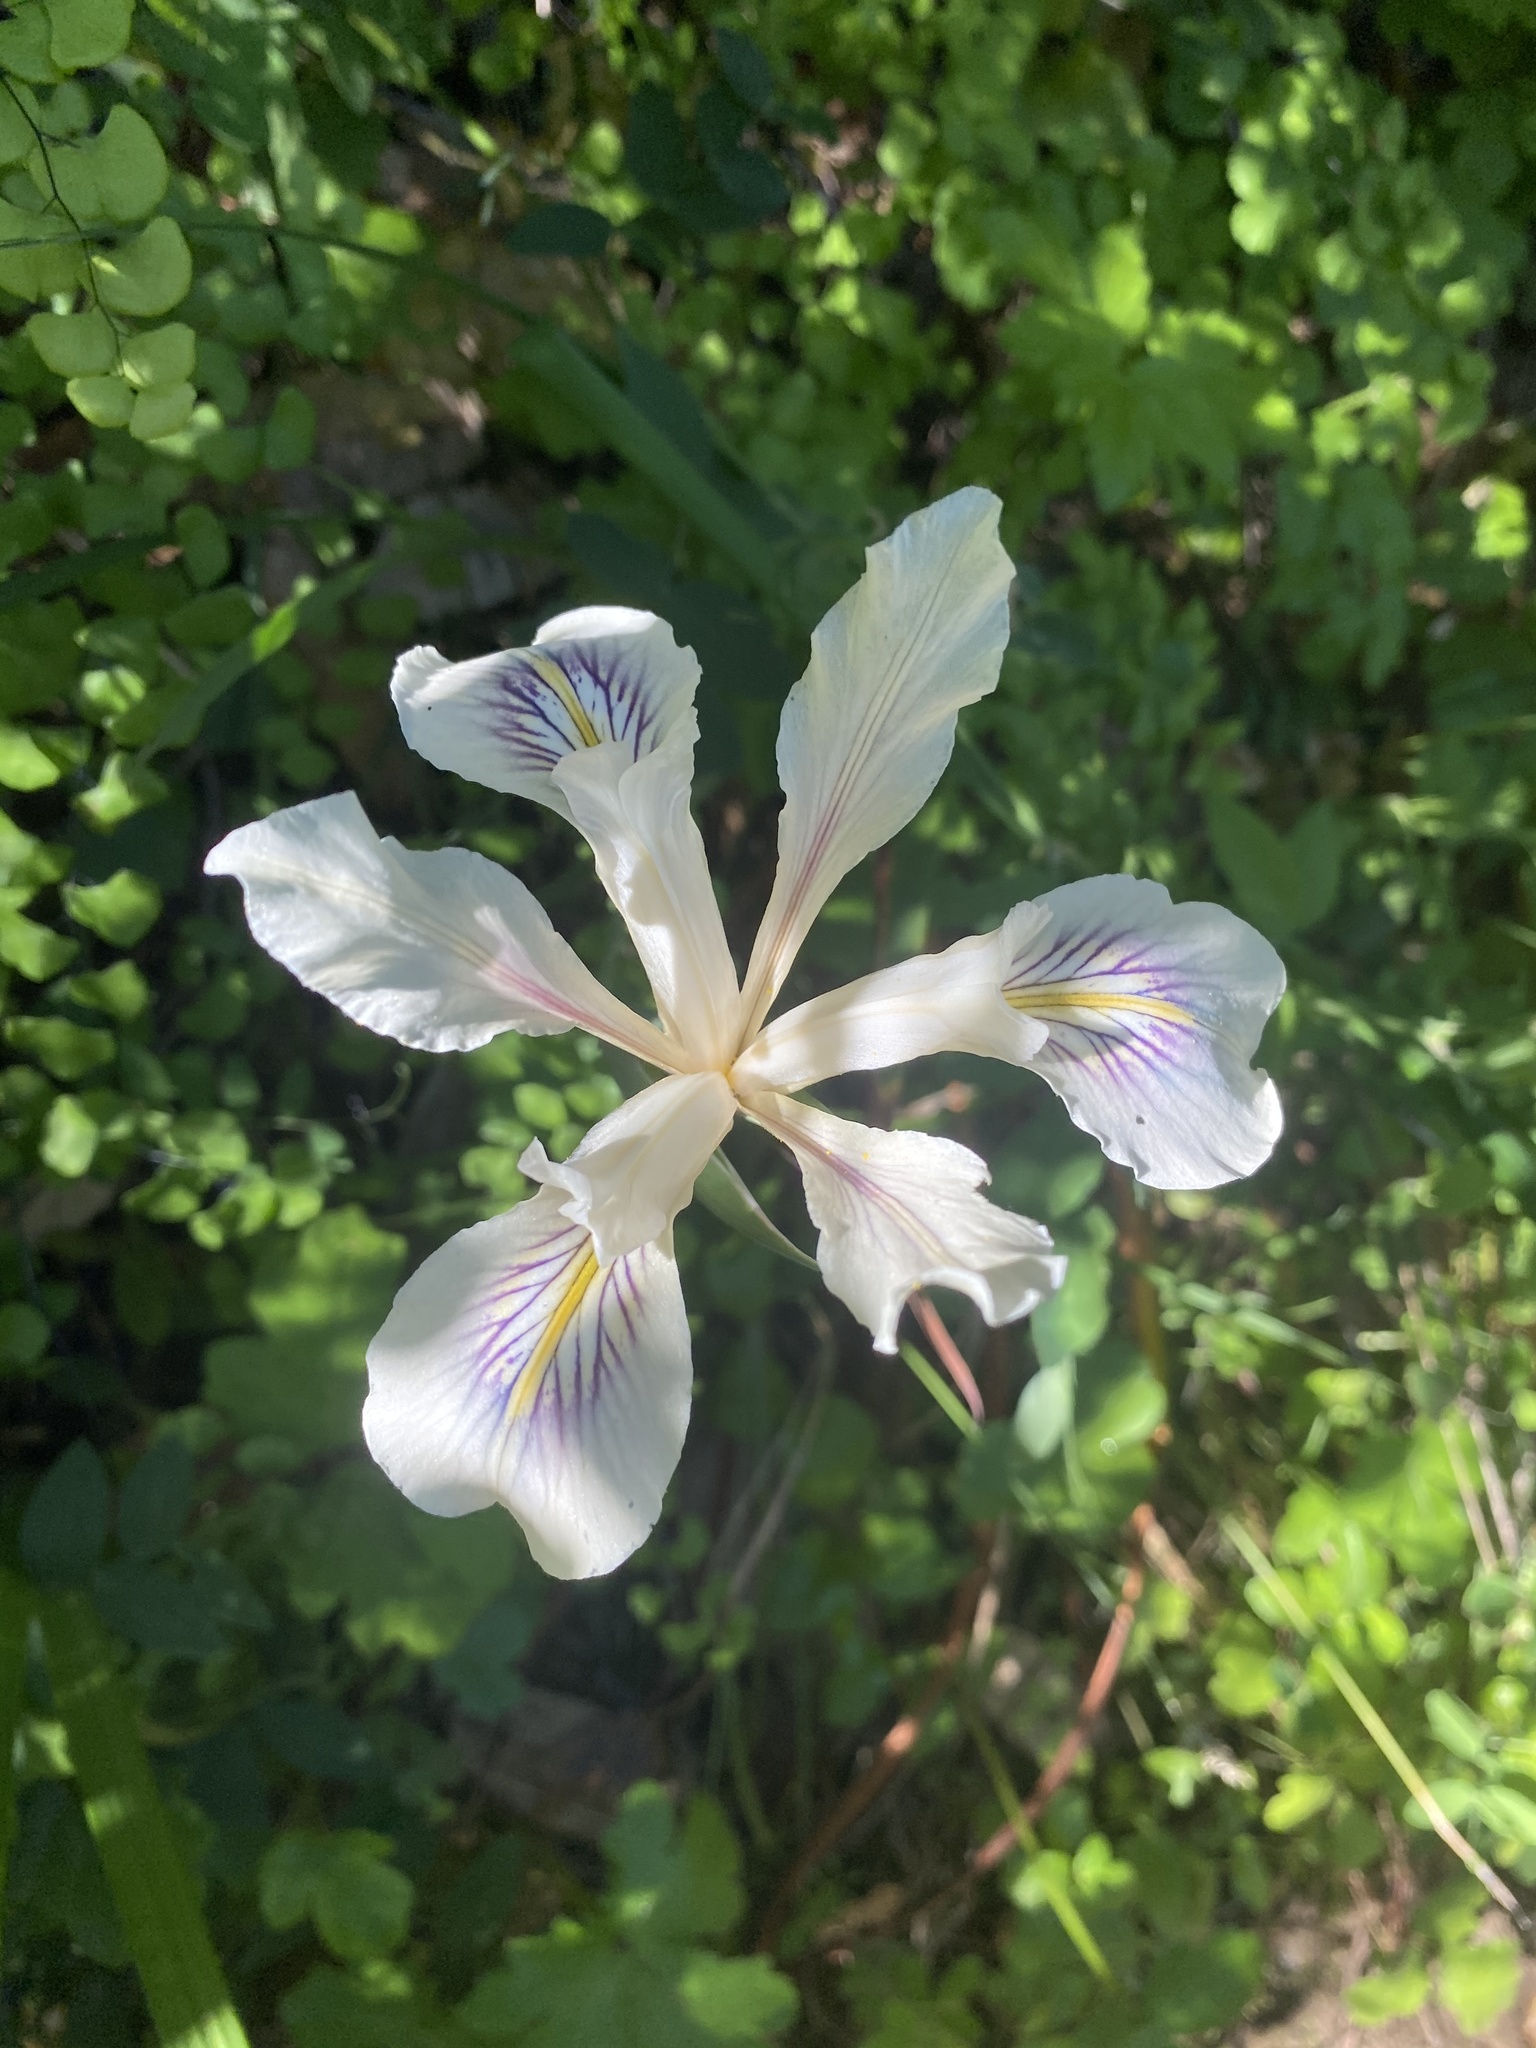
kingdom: Plantae
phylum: Tracheophyta
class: Liliopsida
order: Asparagales
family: Iridaceae
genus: Iris
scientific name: Iris douglasiana
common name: Marin iris
